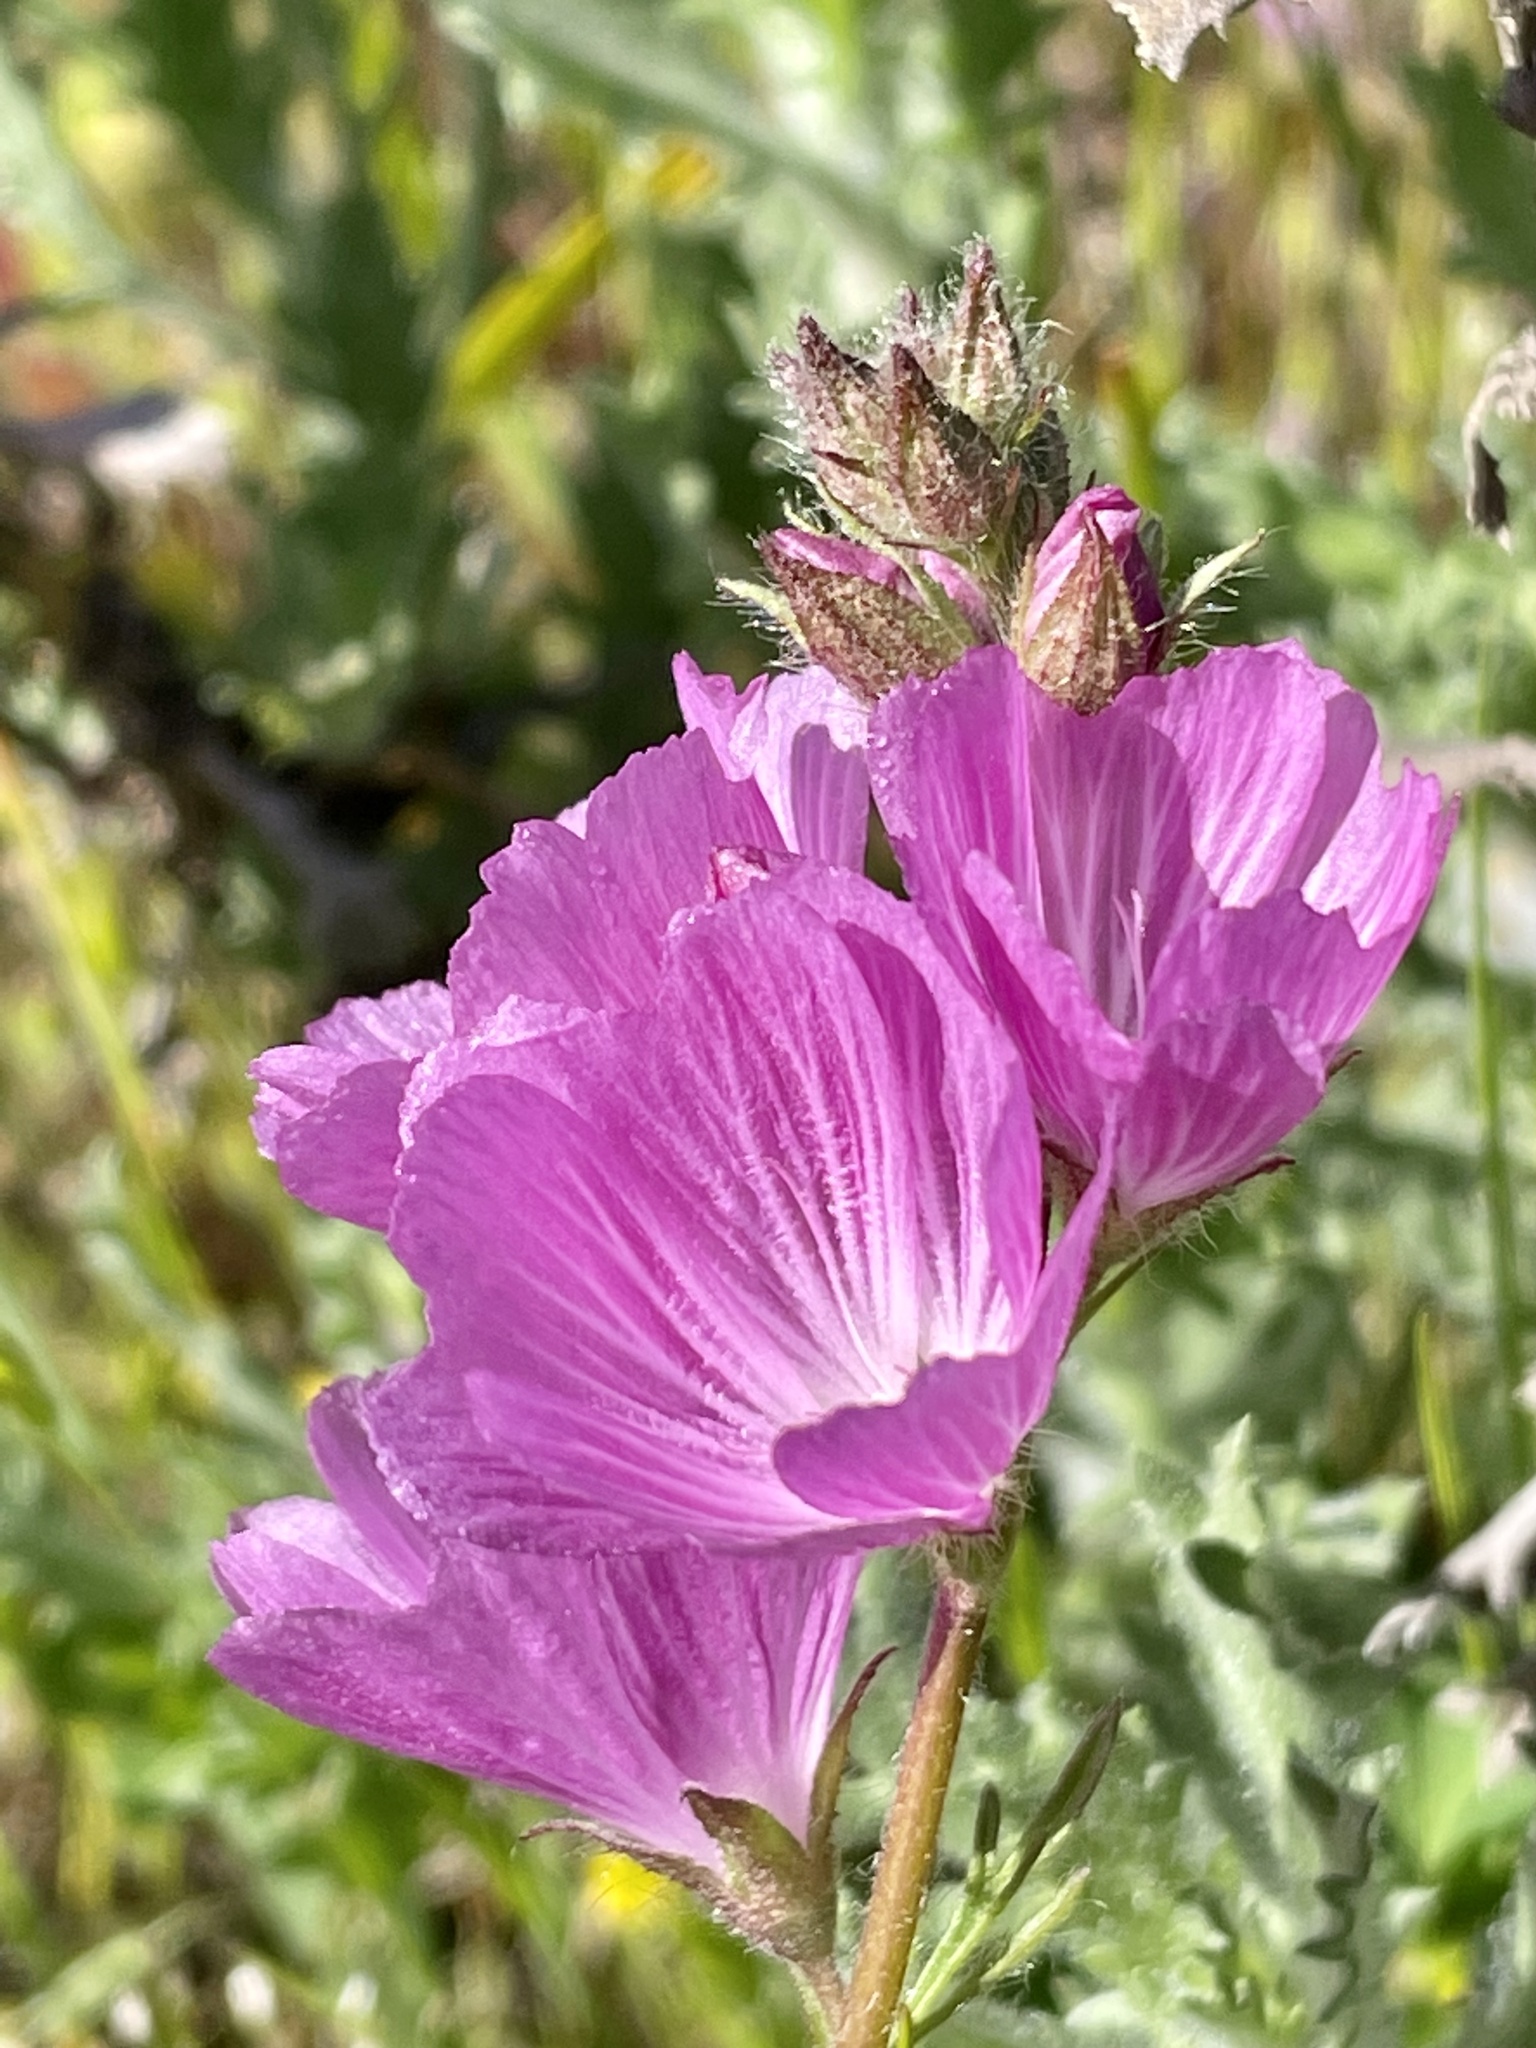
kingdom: Plantae
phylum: Tracheophyta
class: Magnoliopsida
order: Malvales
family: Malvaceae
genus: Sidalcea
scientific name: Sidalcea malviflora
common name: Greek mallow
